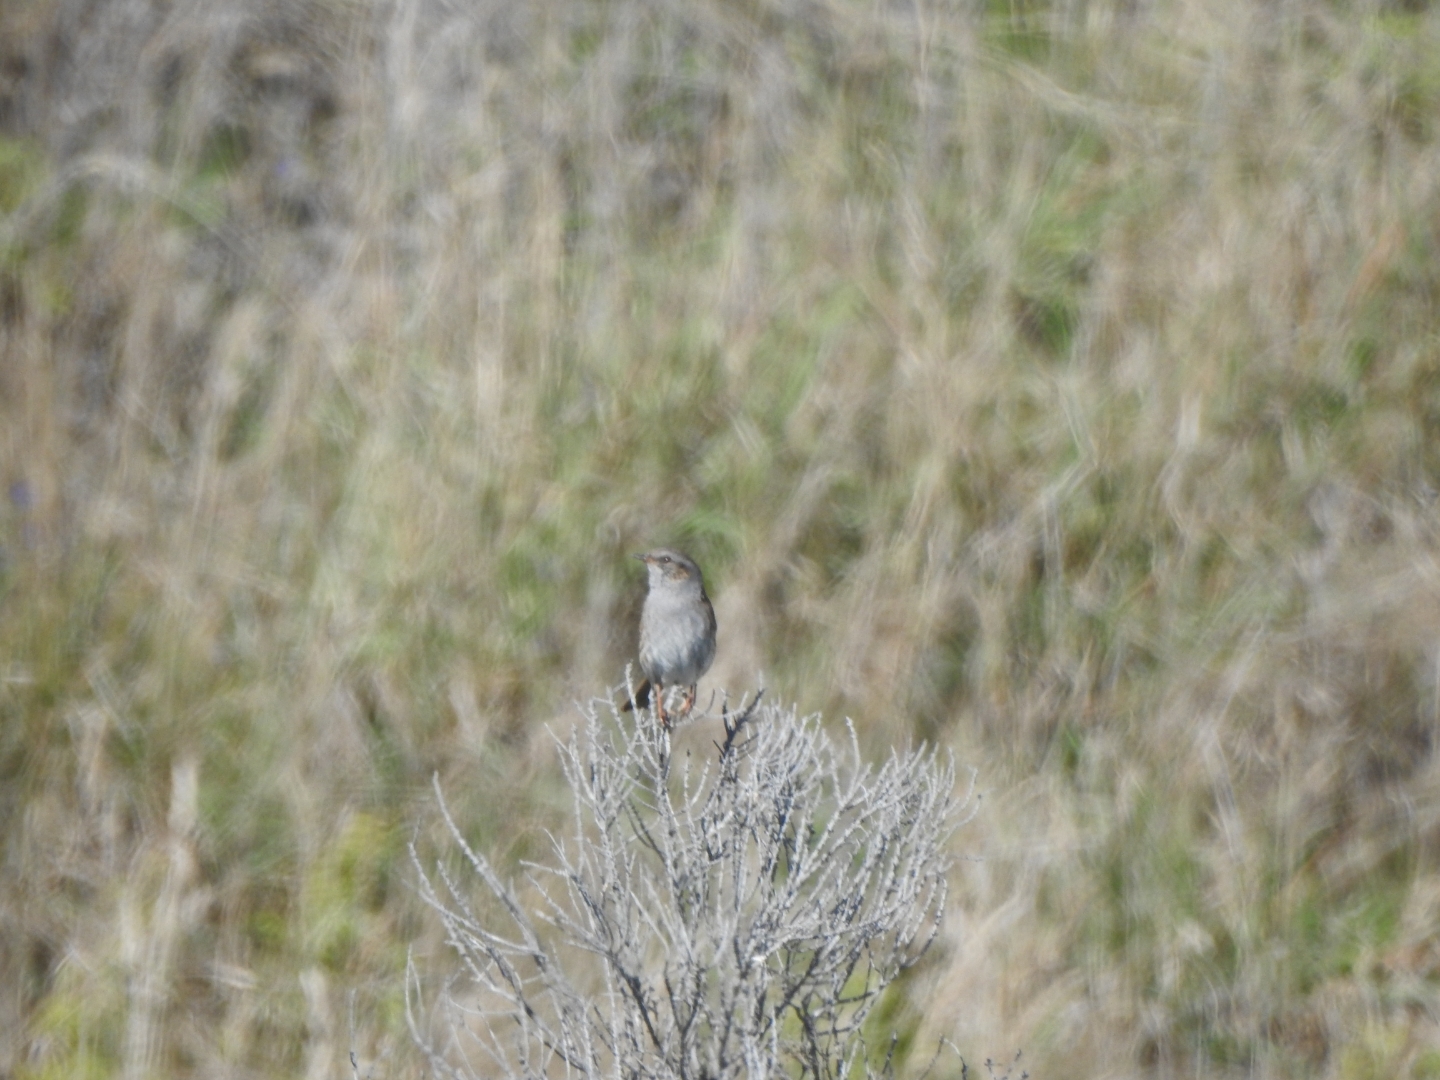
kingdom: Animalia
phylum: Chordata
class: Aves
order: Passeriformes
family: Prunellidae
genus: Prunella
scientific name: Prunella modularis
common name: Dunnock
